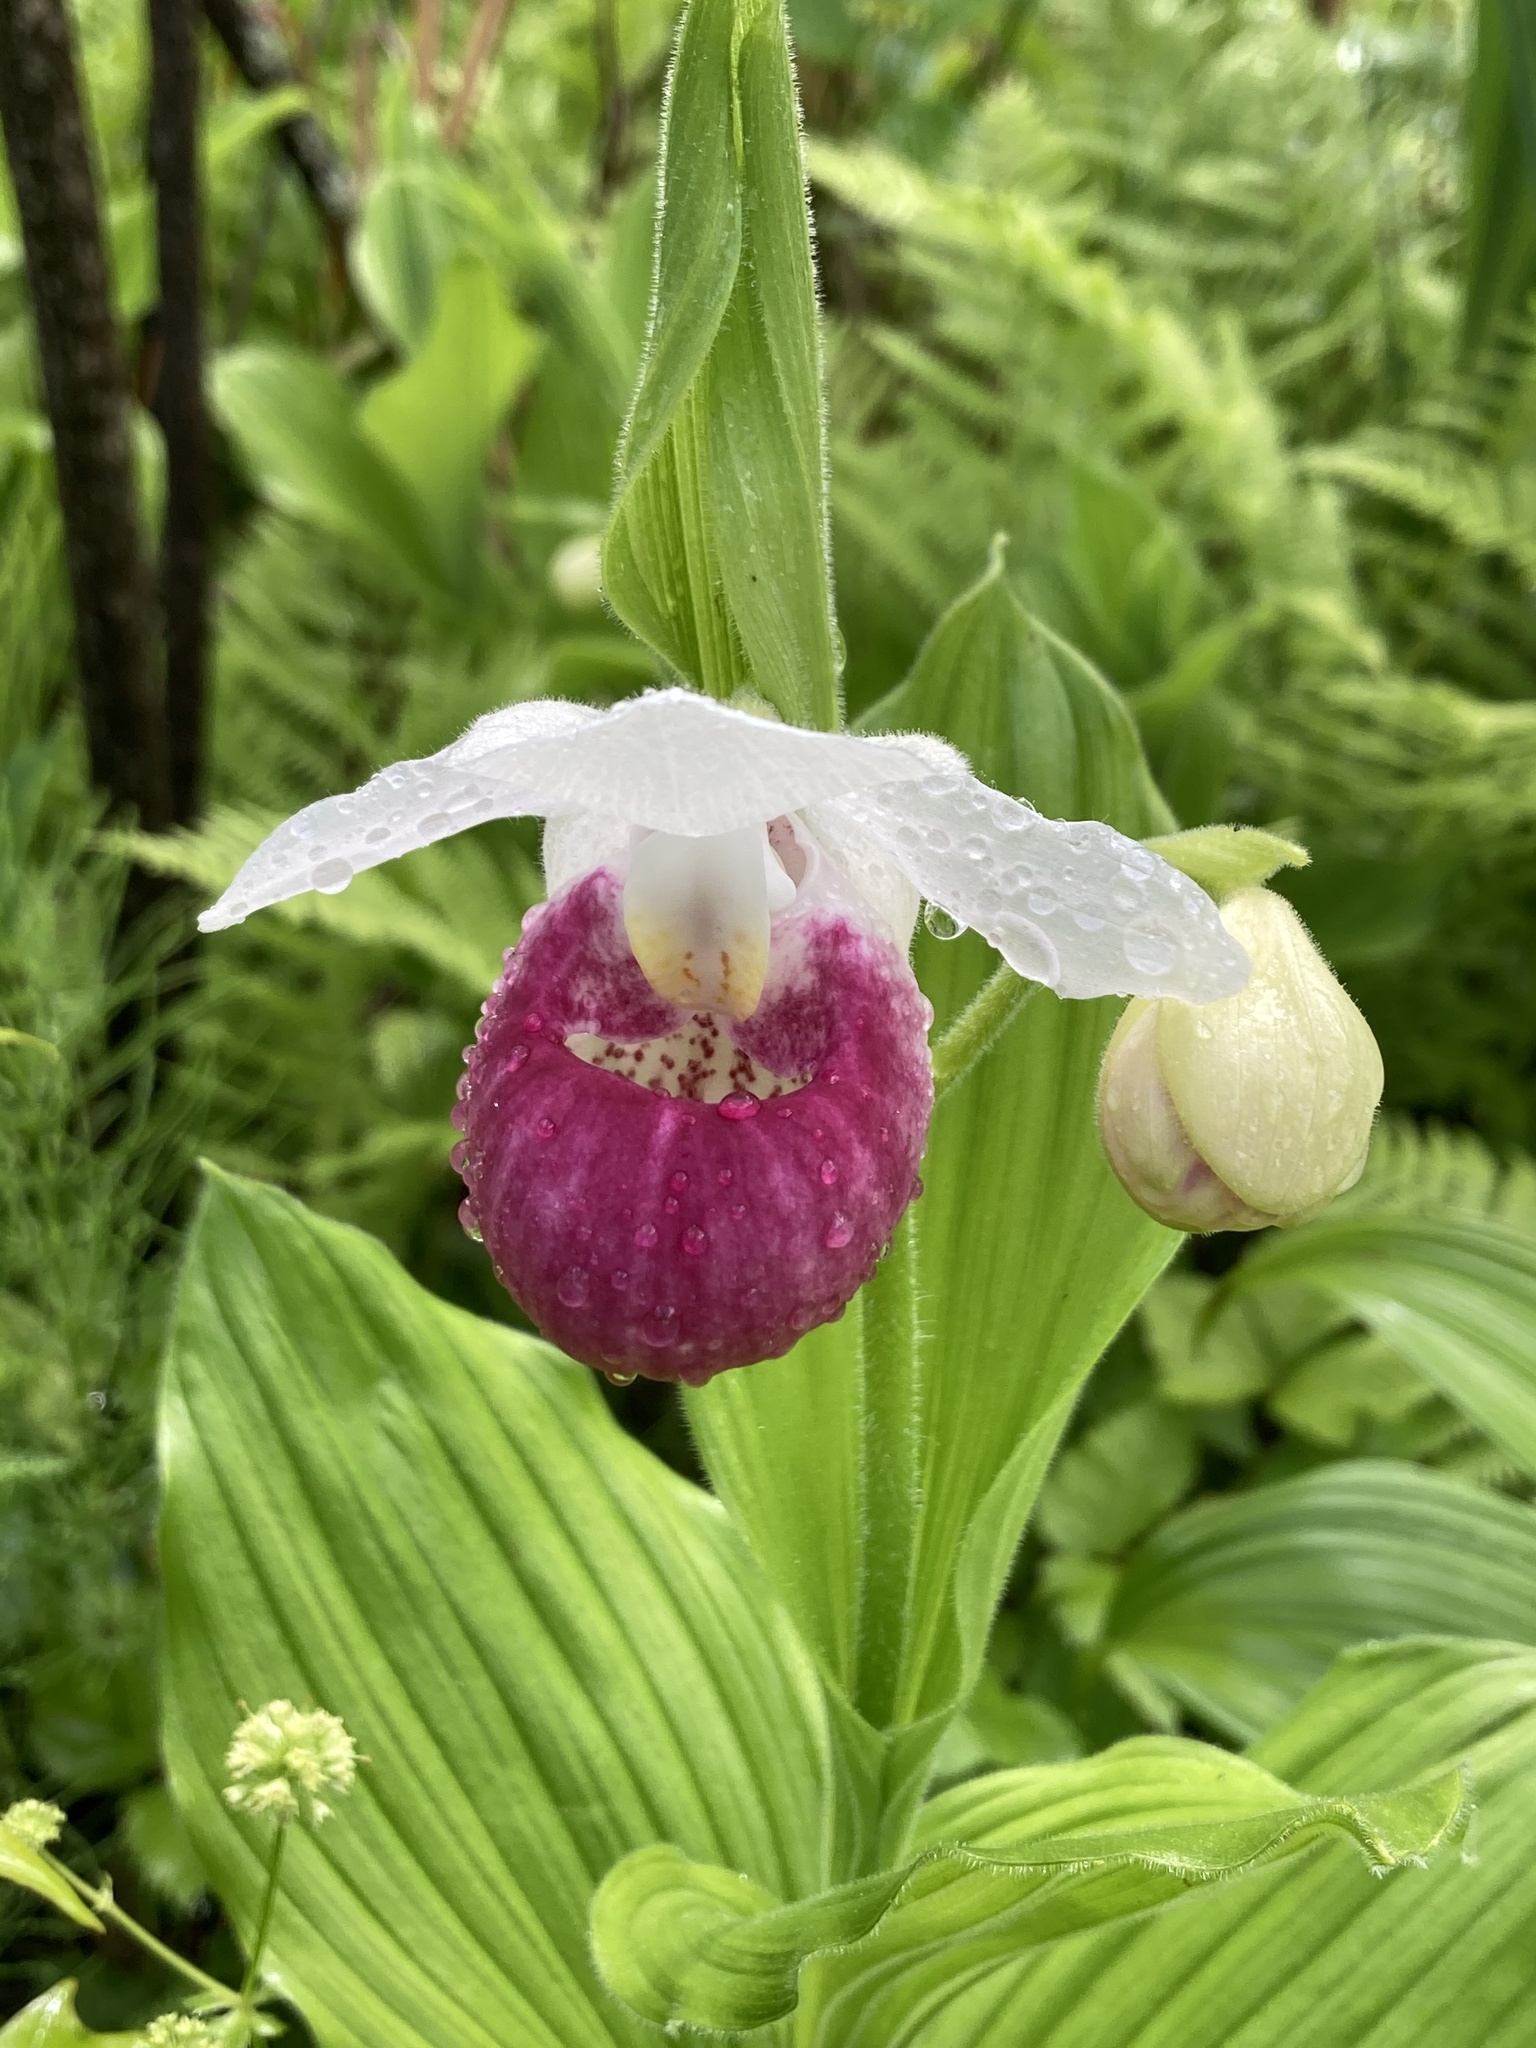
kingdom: Plantae
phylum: Tracheophyta
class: Liliopsida
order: Asparagales
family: Orchidaceae
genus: Cypripedium
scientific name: Cypripedium reginae
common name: Queen lady's-slipper
